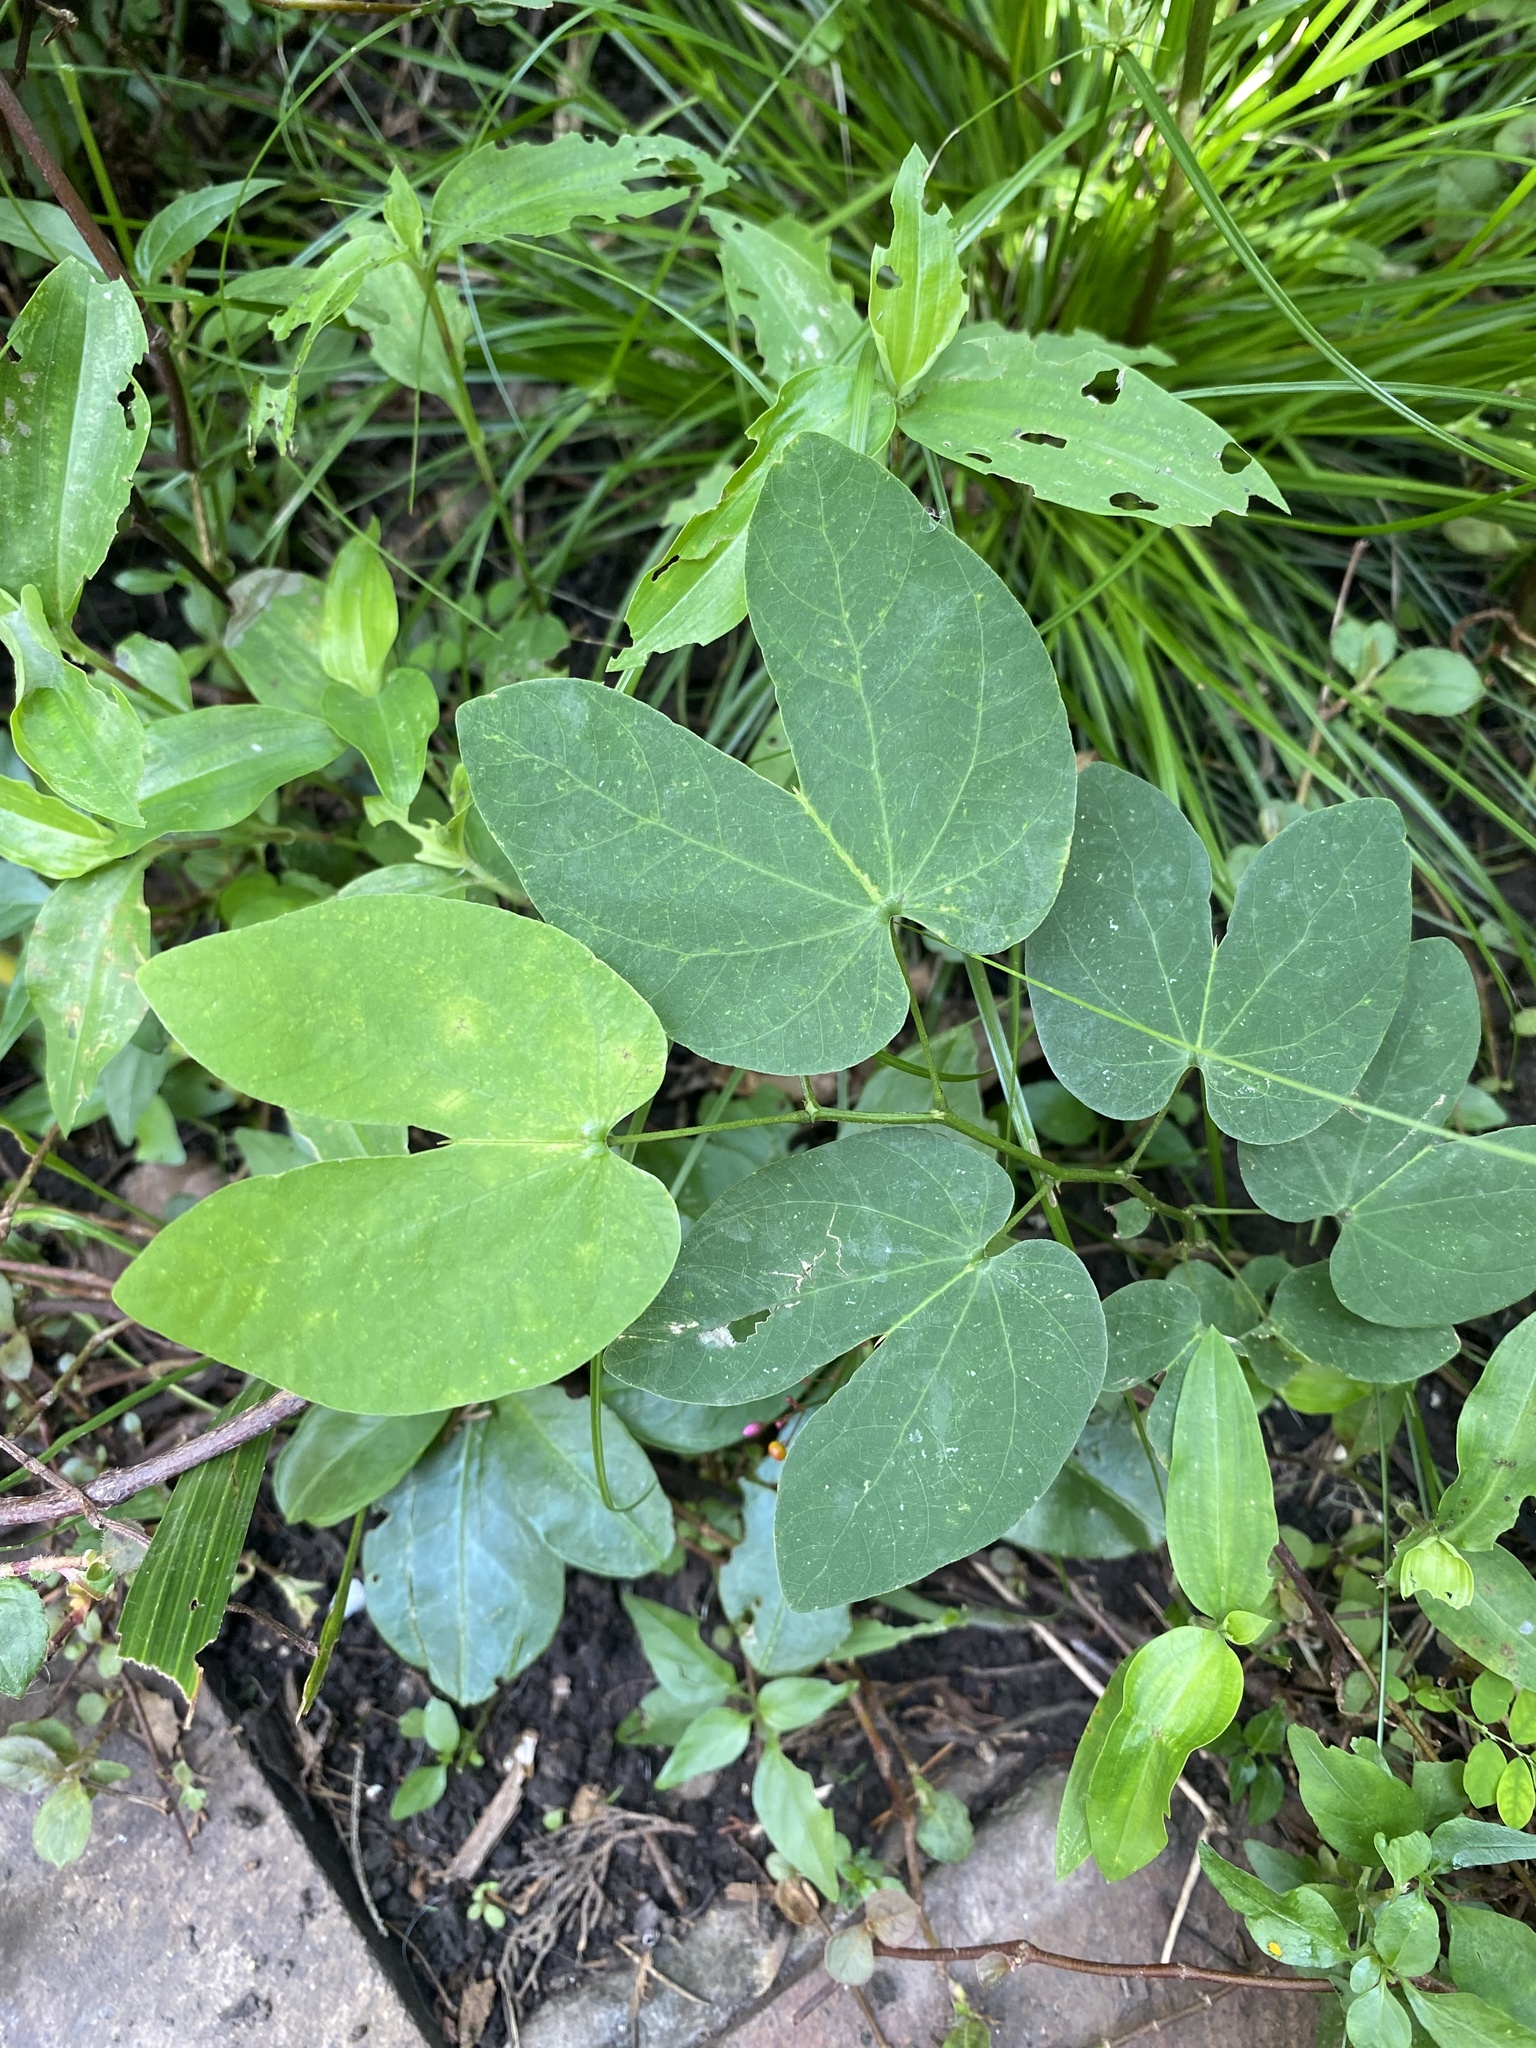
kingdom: Plantae
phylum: Tracheophyta
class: Magnoliopsida
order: Fabales
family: Fabaceae
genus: Bauhinia
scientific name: Bauhinia forficata
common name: Orchid tree
